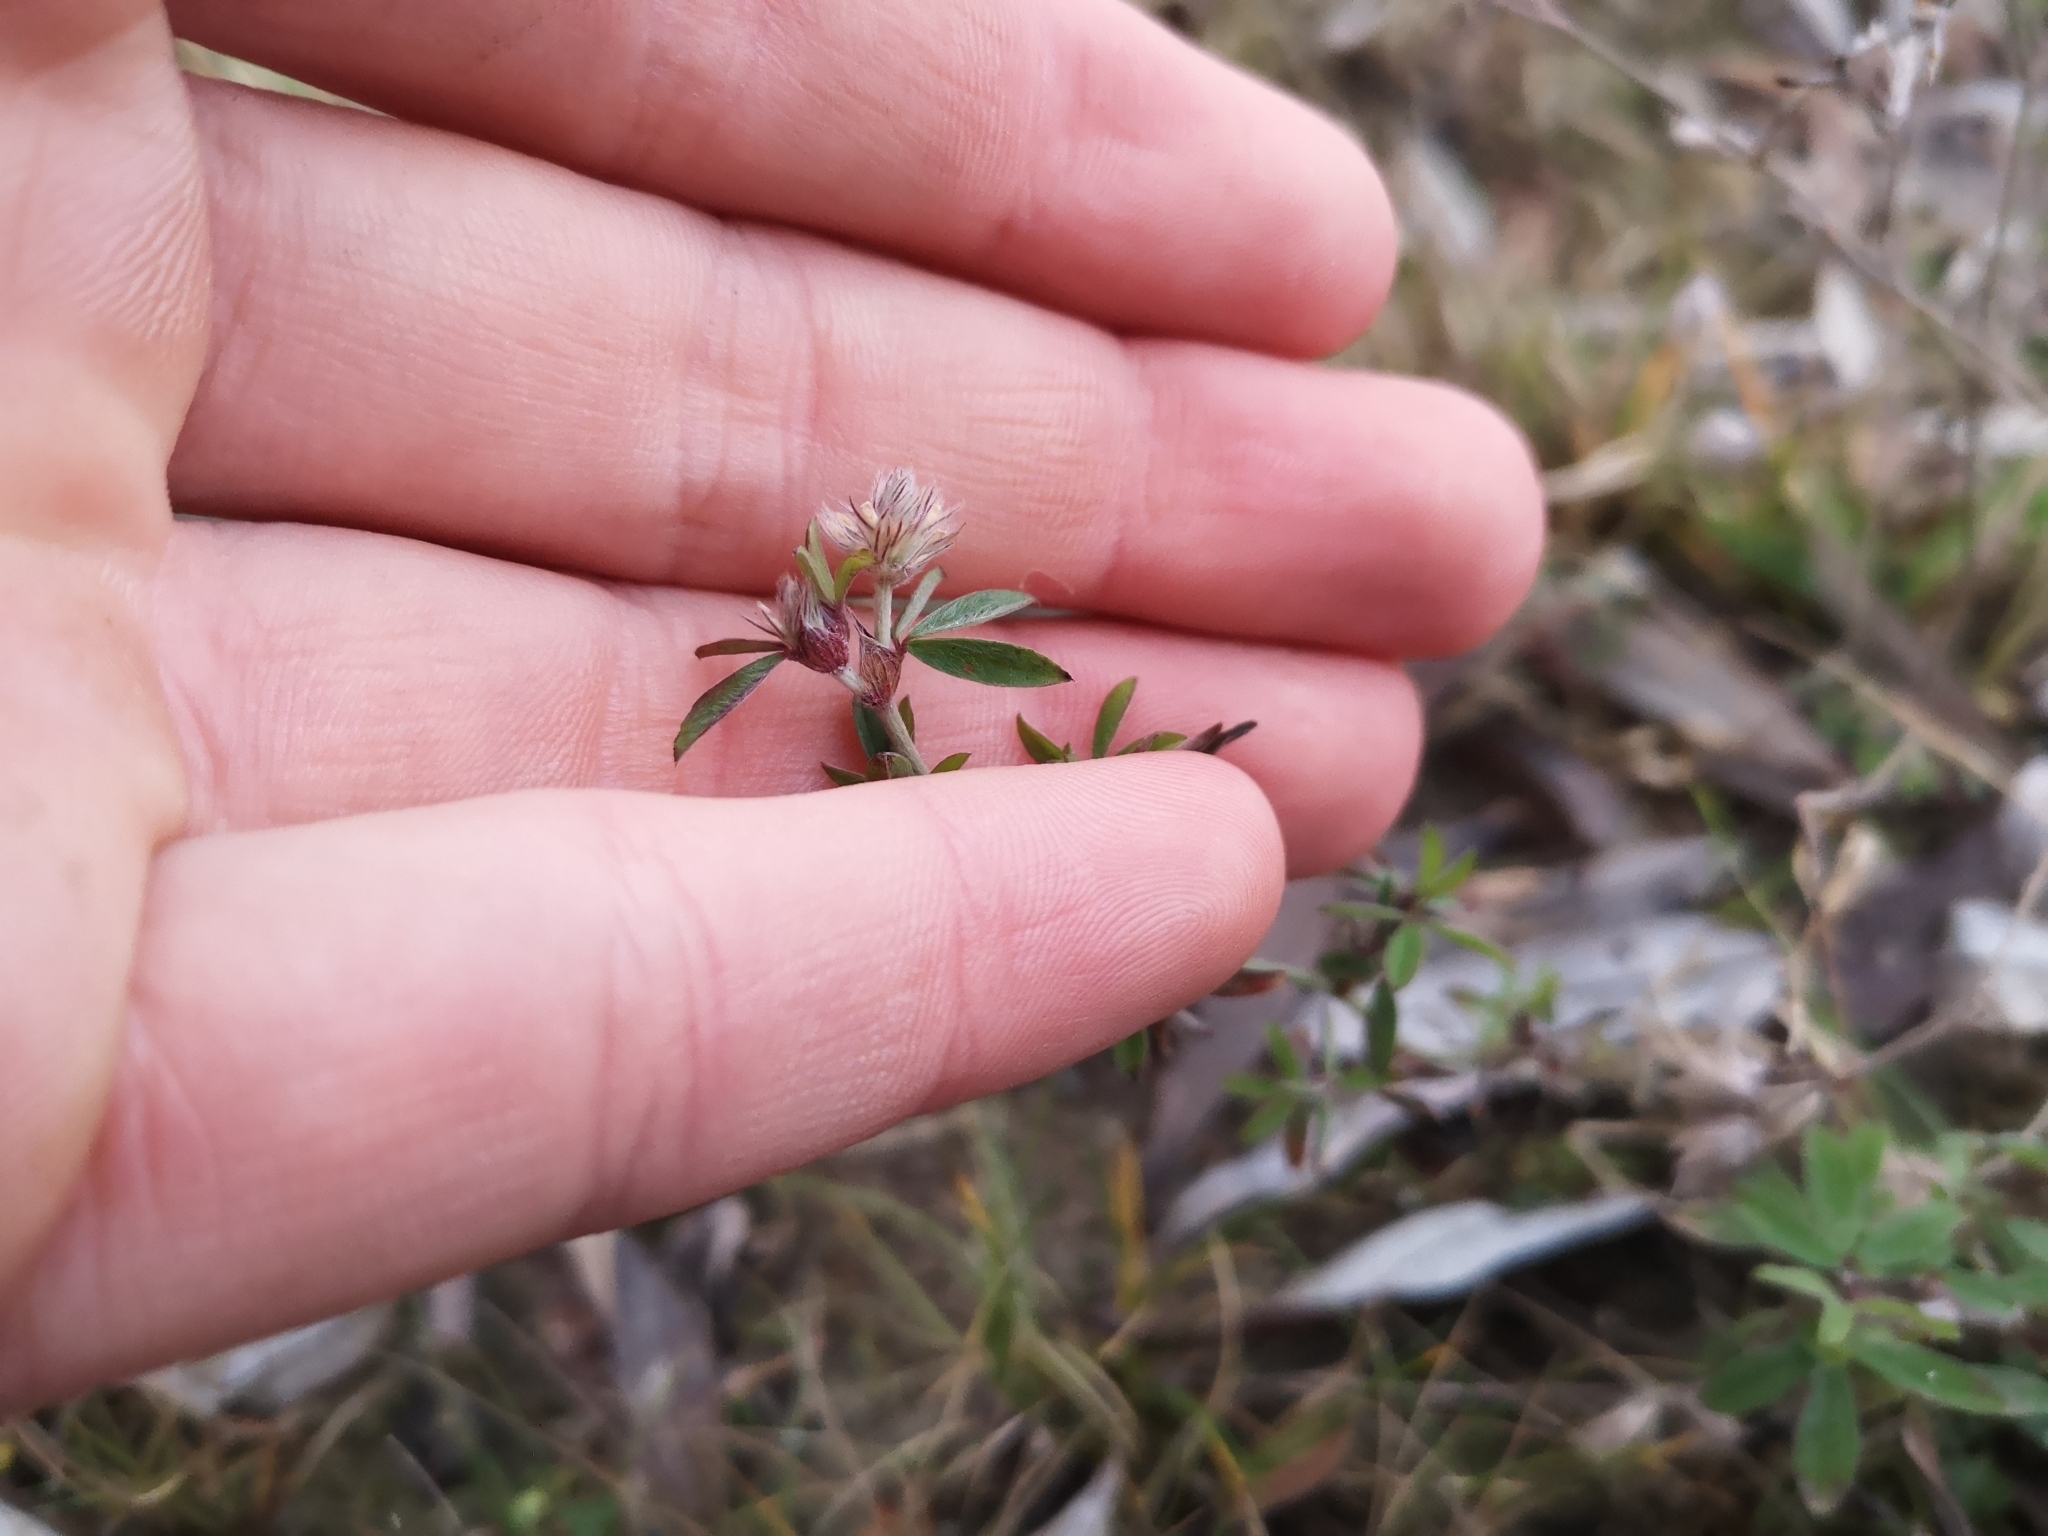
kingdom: Plantae
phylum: Tracheophyta
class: Magnoliopsida
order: Fabales
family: Fabaceae
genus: Trifolium
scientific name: Trifolium arvense
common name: Hare's-foot clover
